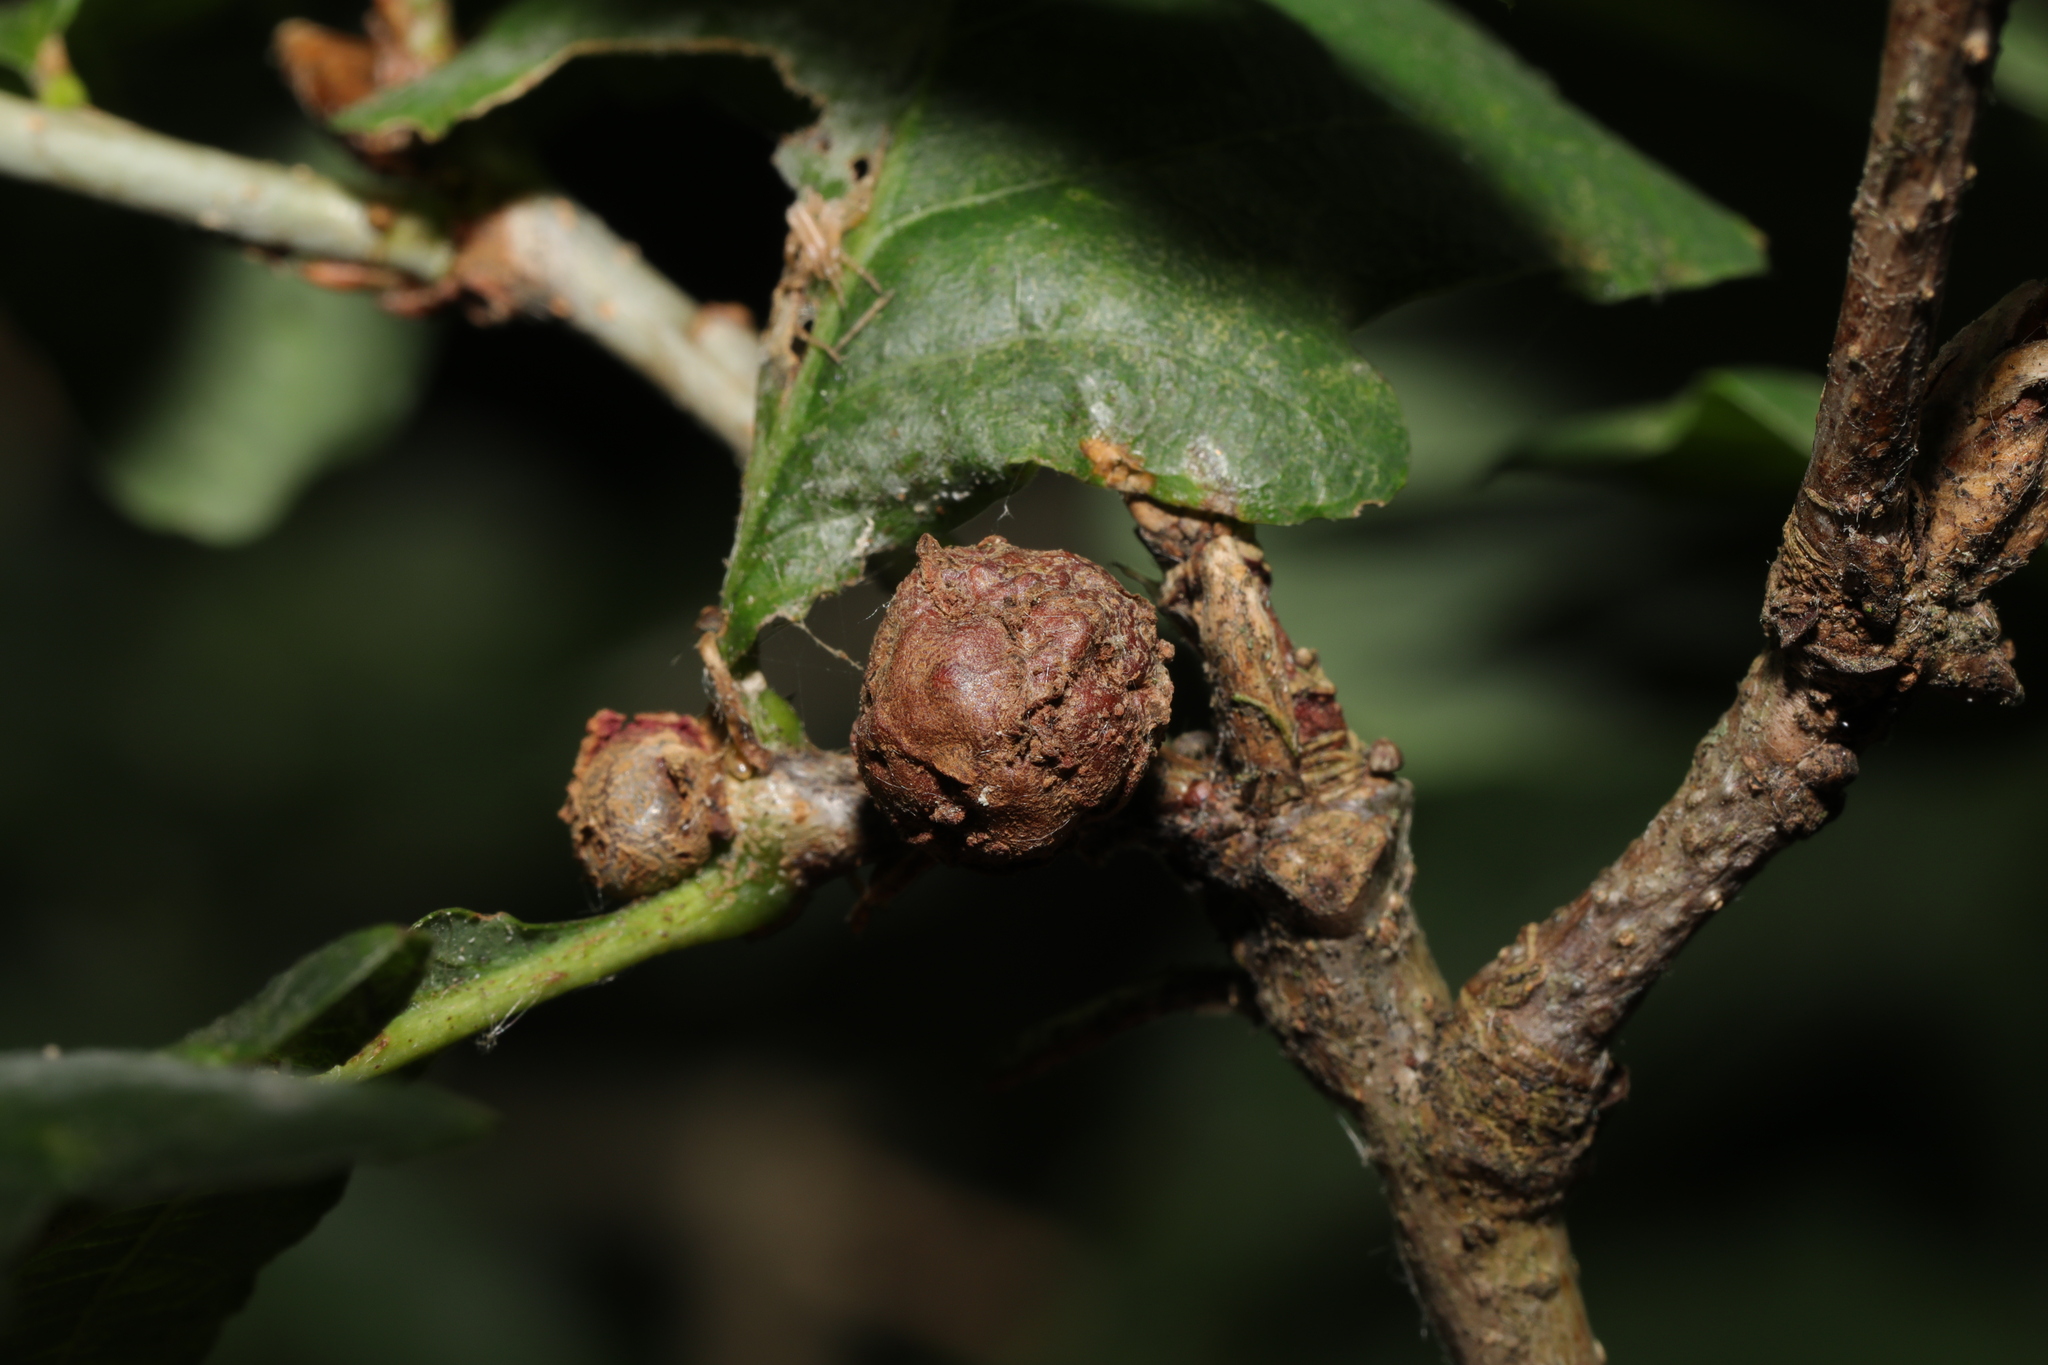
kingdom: Animalia
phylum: Arthropoda
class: Insecta
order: Hymenoptera
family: Cynipidae
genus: Andricus
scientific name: Andricus lignicolus
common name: Cola-nut gall
